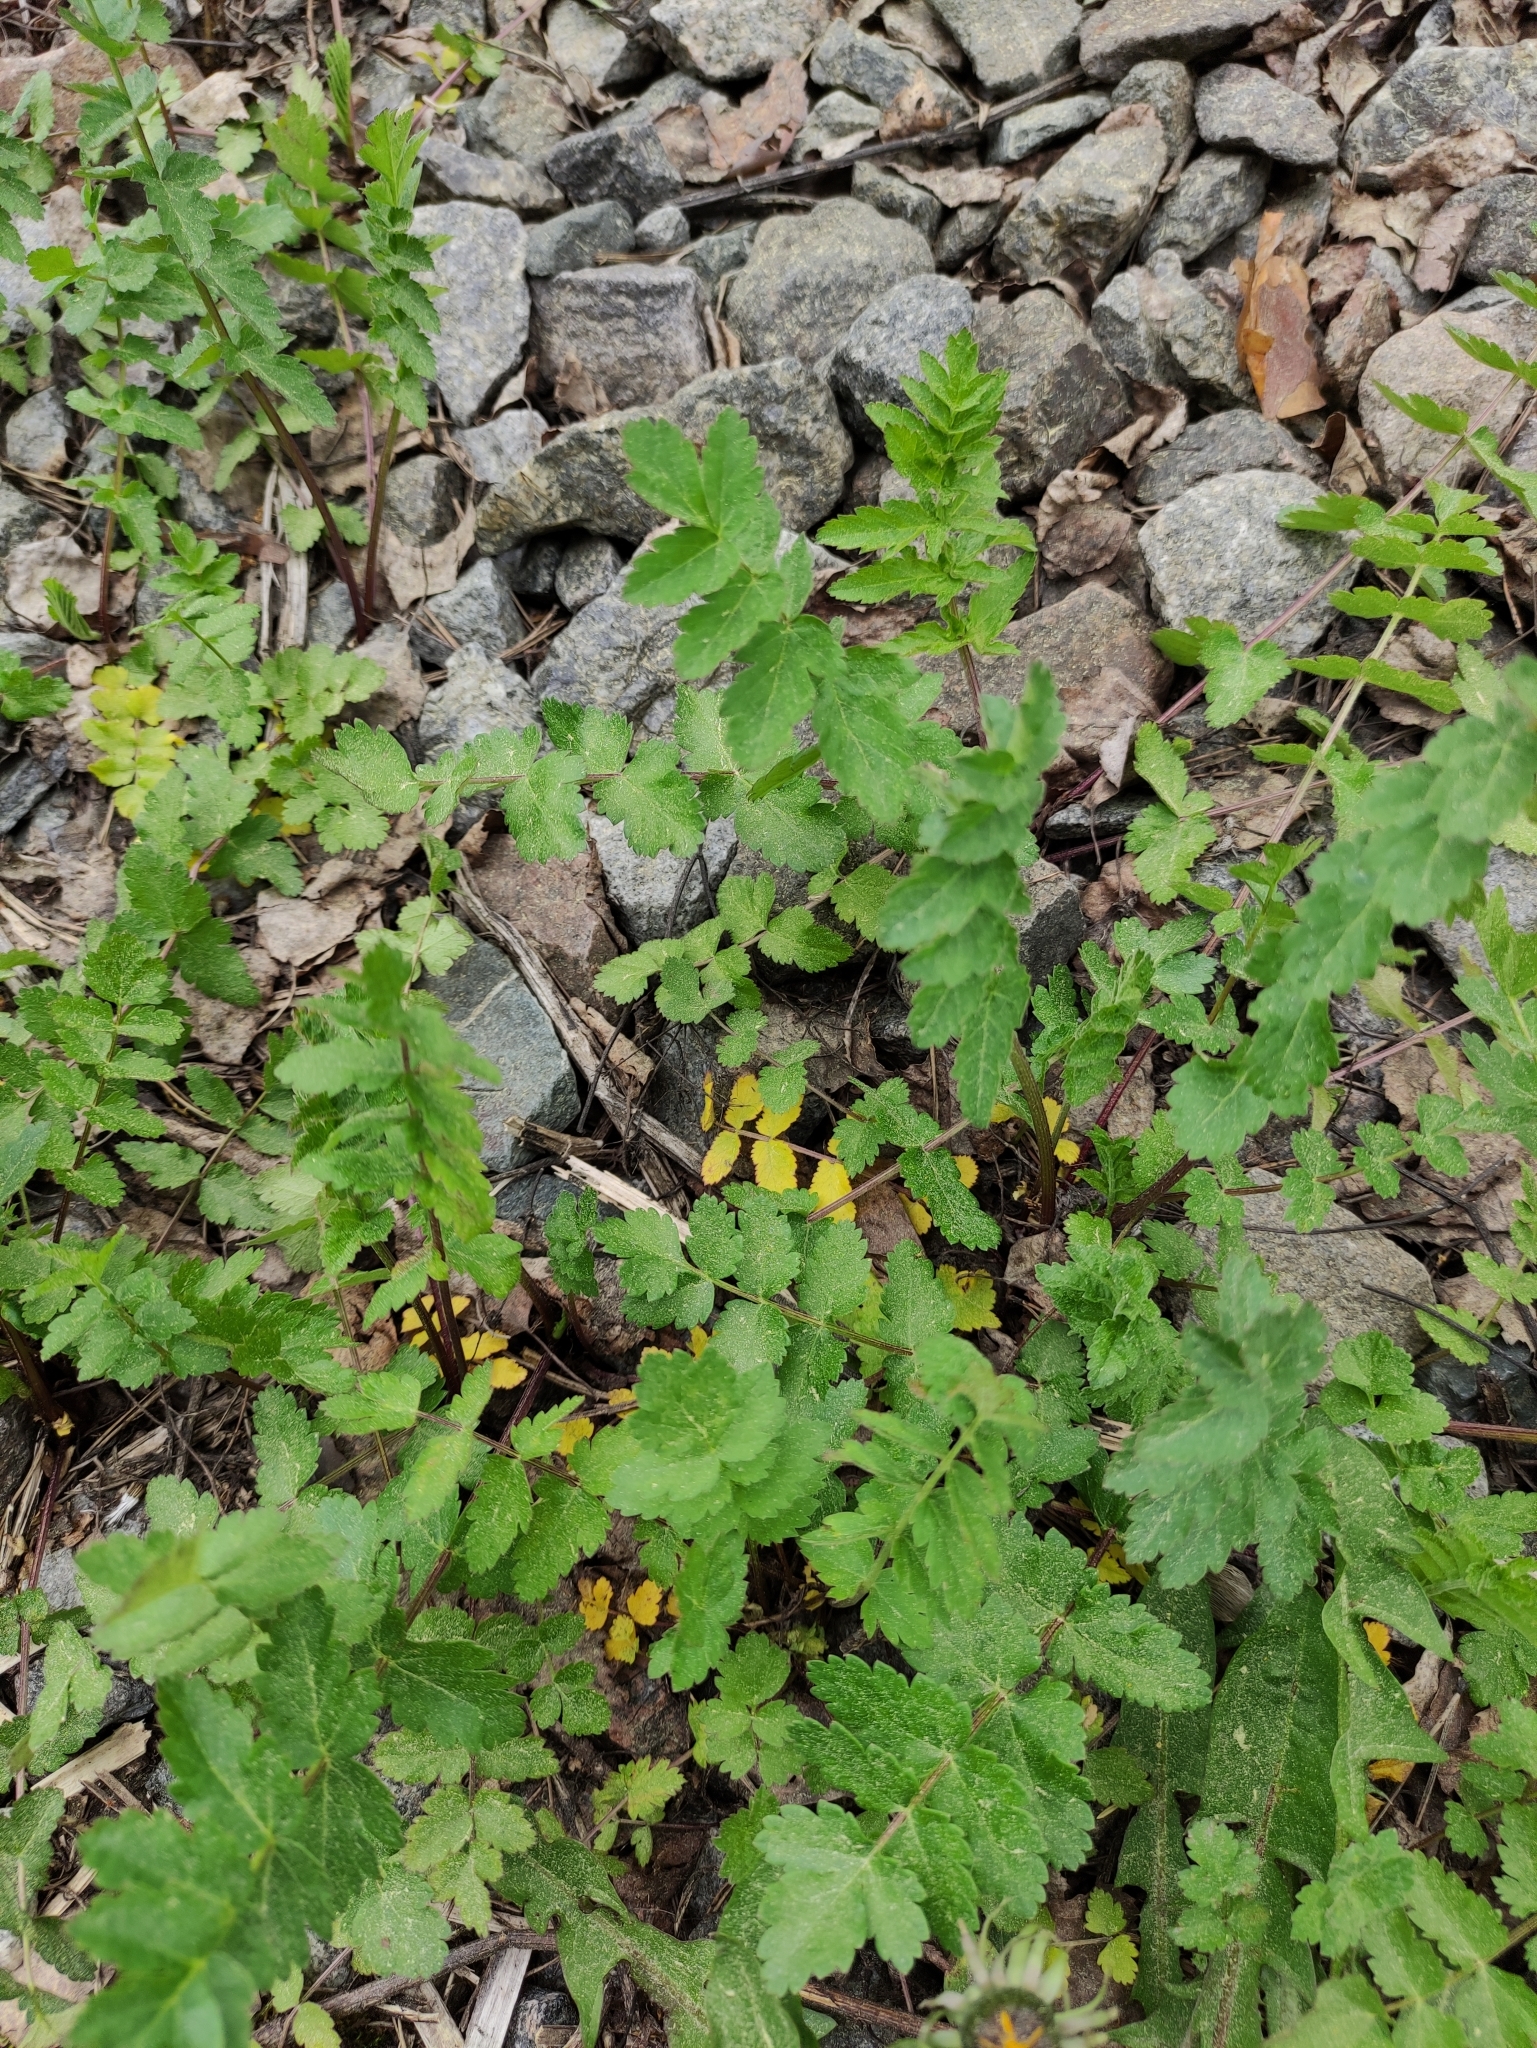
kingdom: Plantae
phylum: Tracheophyta
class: Magnoliopsida
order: Apiales
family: Apiaceae
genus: Pastinaca
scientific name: Pastinaca sativa
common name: Wild parsnip
